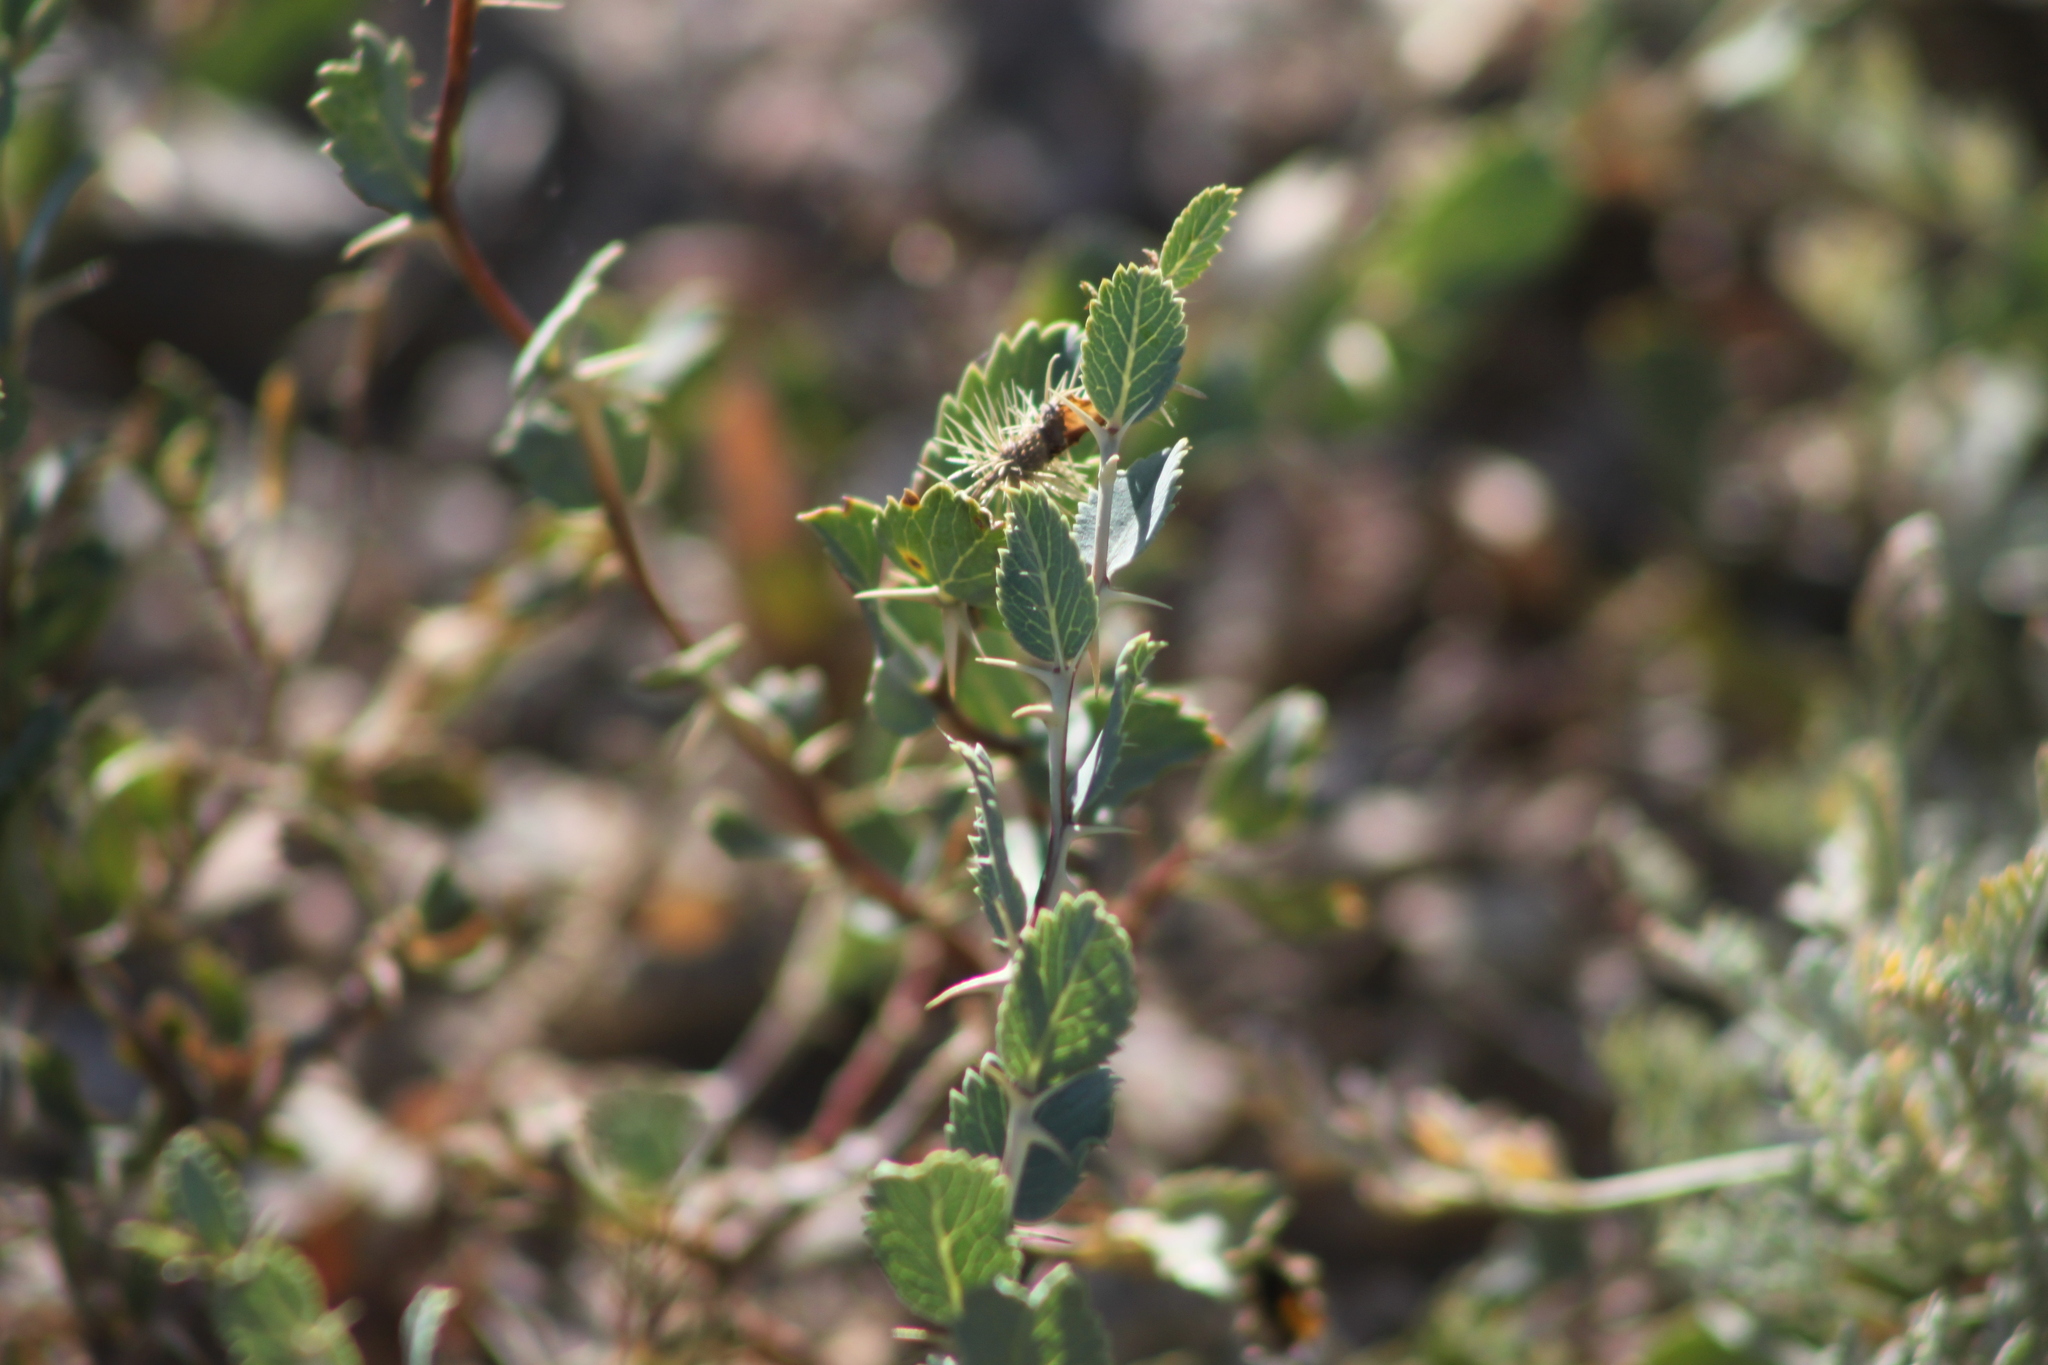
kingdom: Plantae
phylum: Tracheophyta
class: Magnoliopsida
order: Rosales
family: Rosaceae
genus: Rosa
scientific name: Rosa persica
